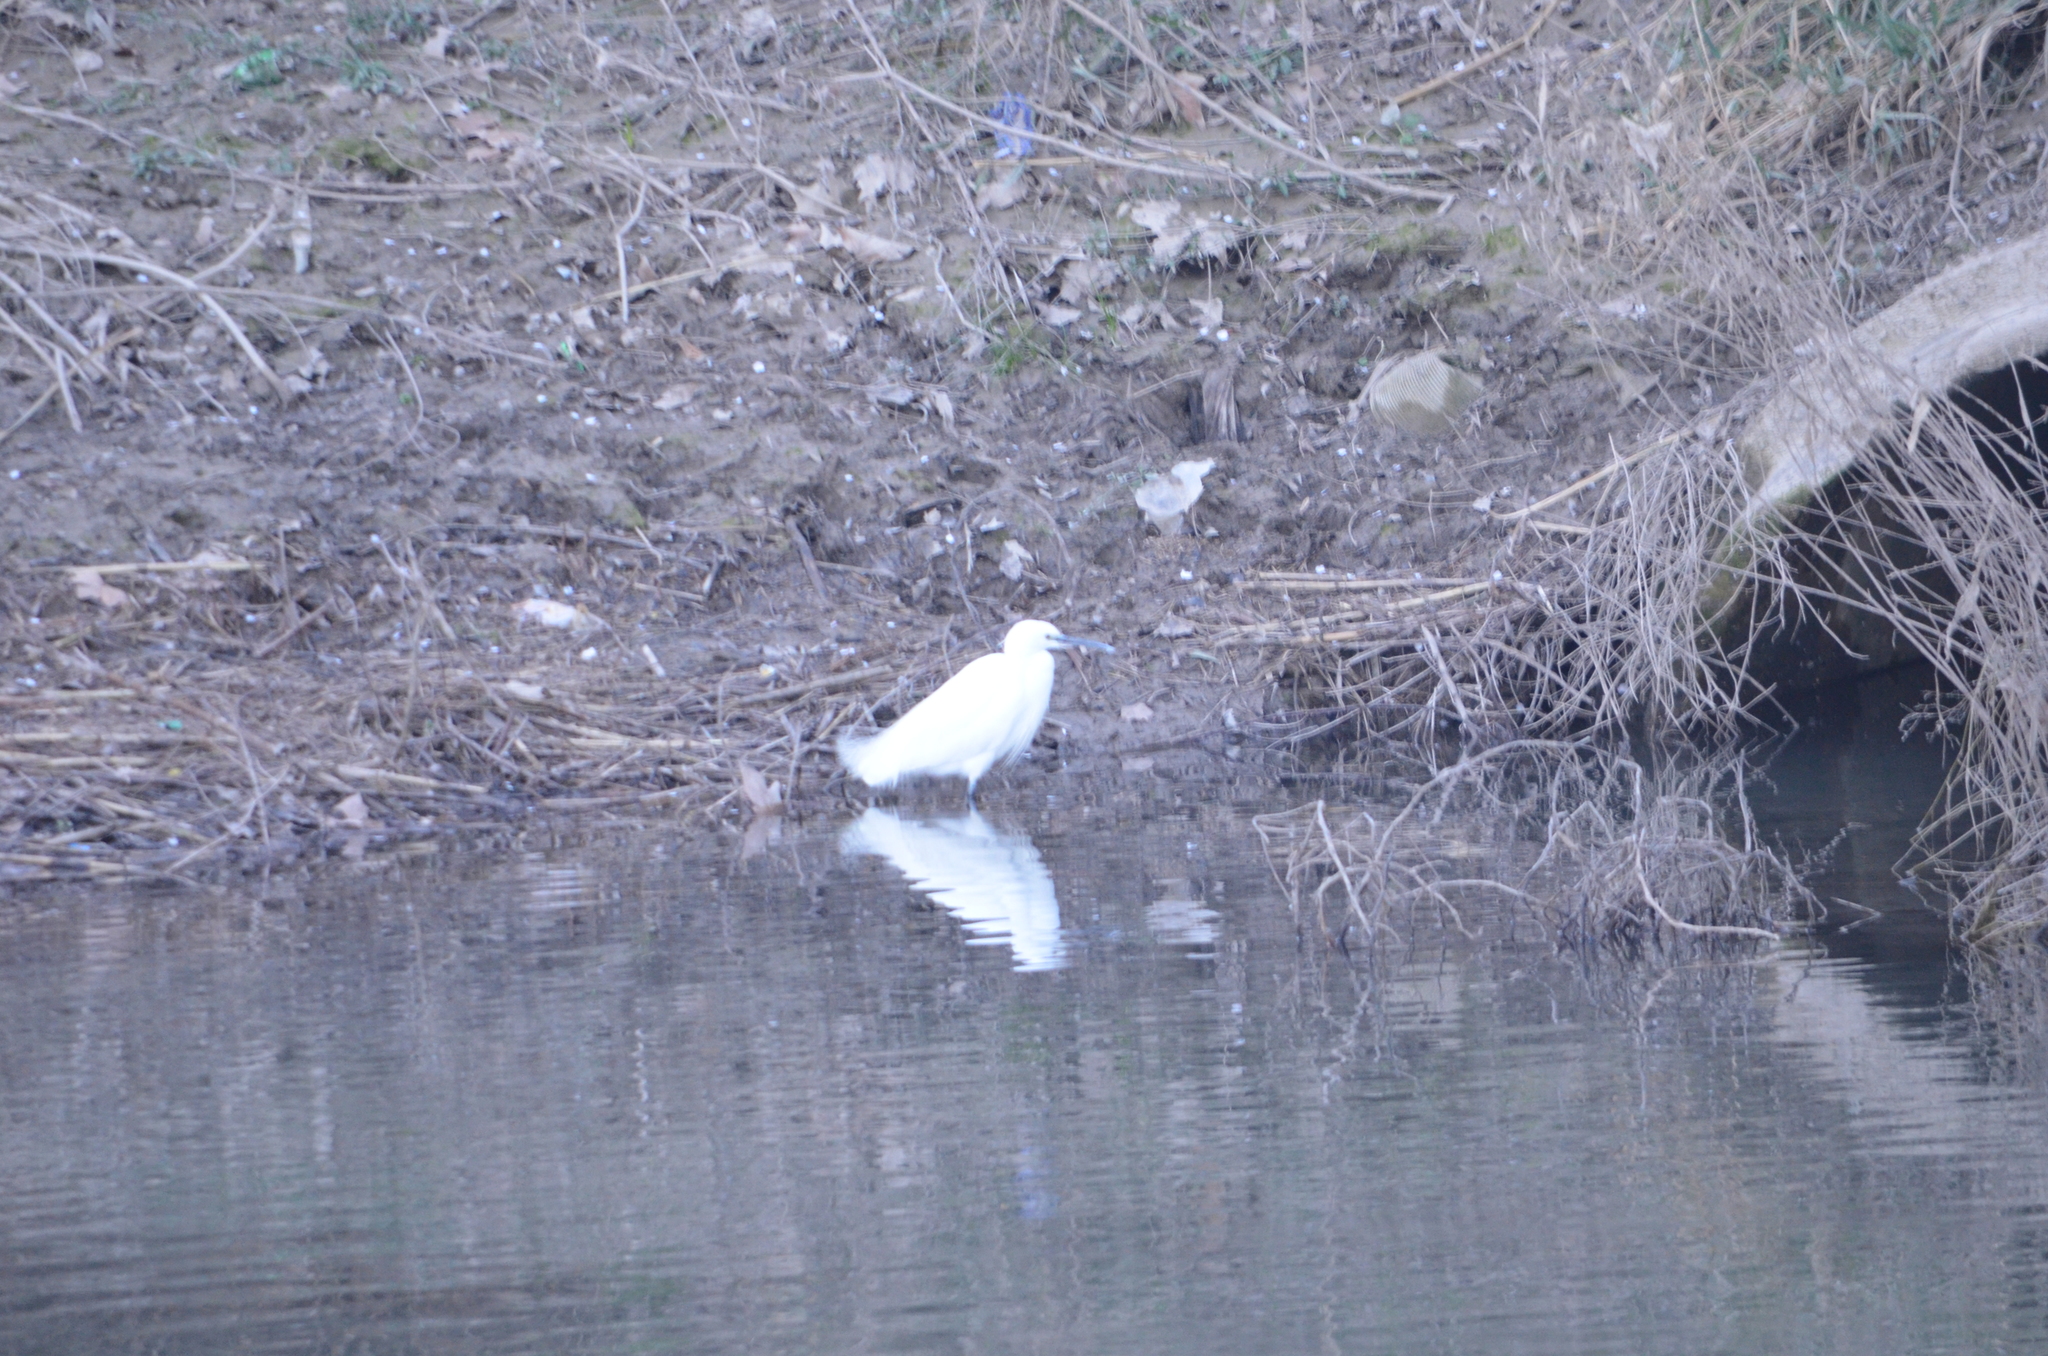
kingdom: Animalia
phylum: Chordata
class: Aves
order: Pelecaniformes
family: Ardeidae
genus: Egretta
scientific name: Egretta garzetta
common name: Little egret
